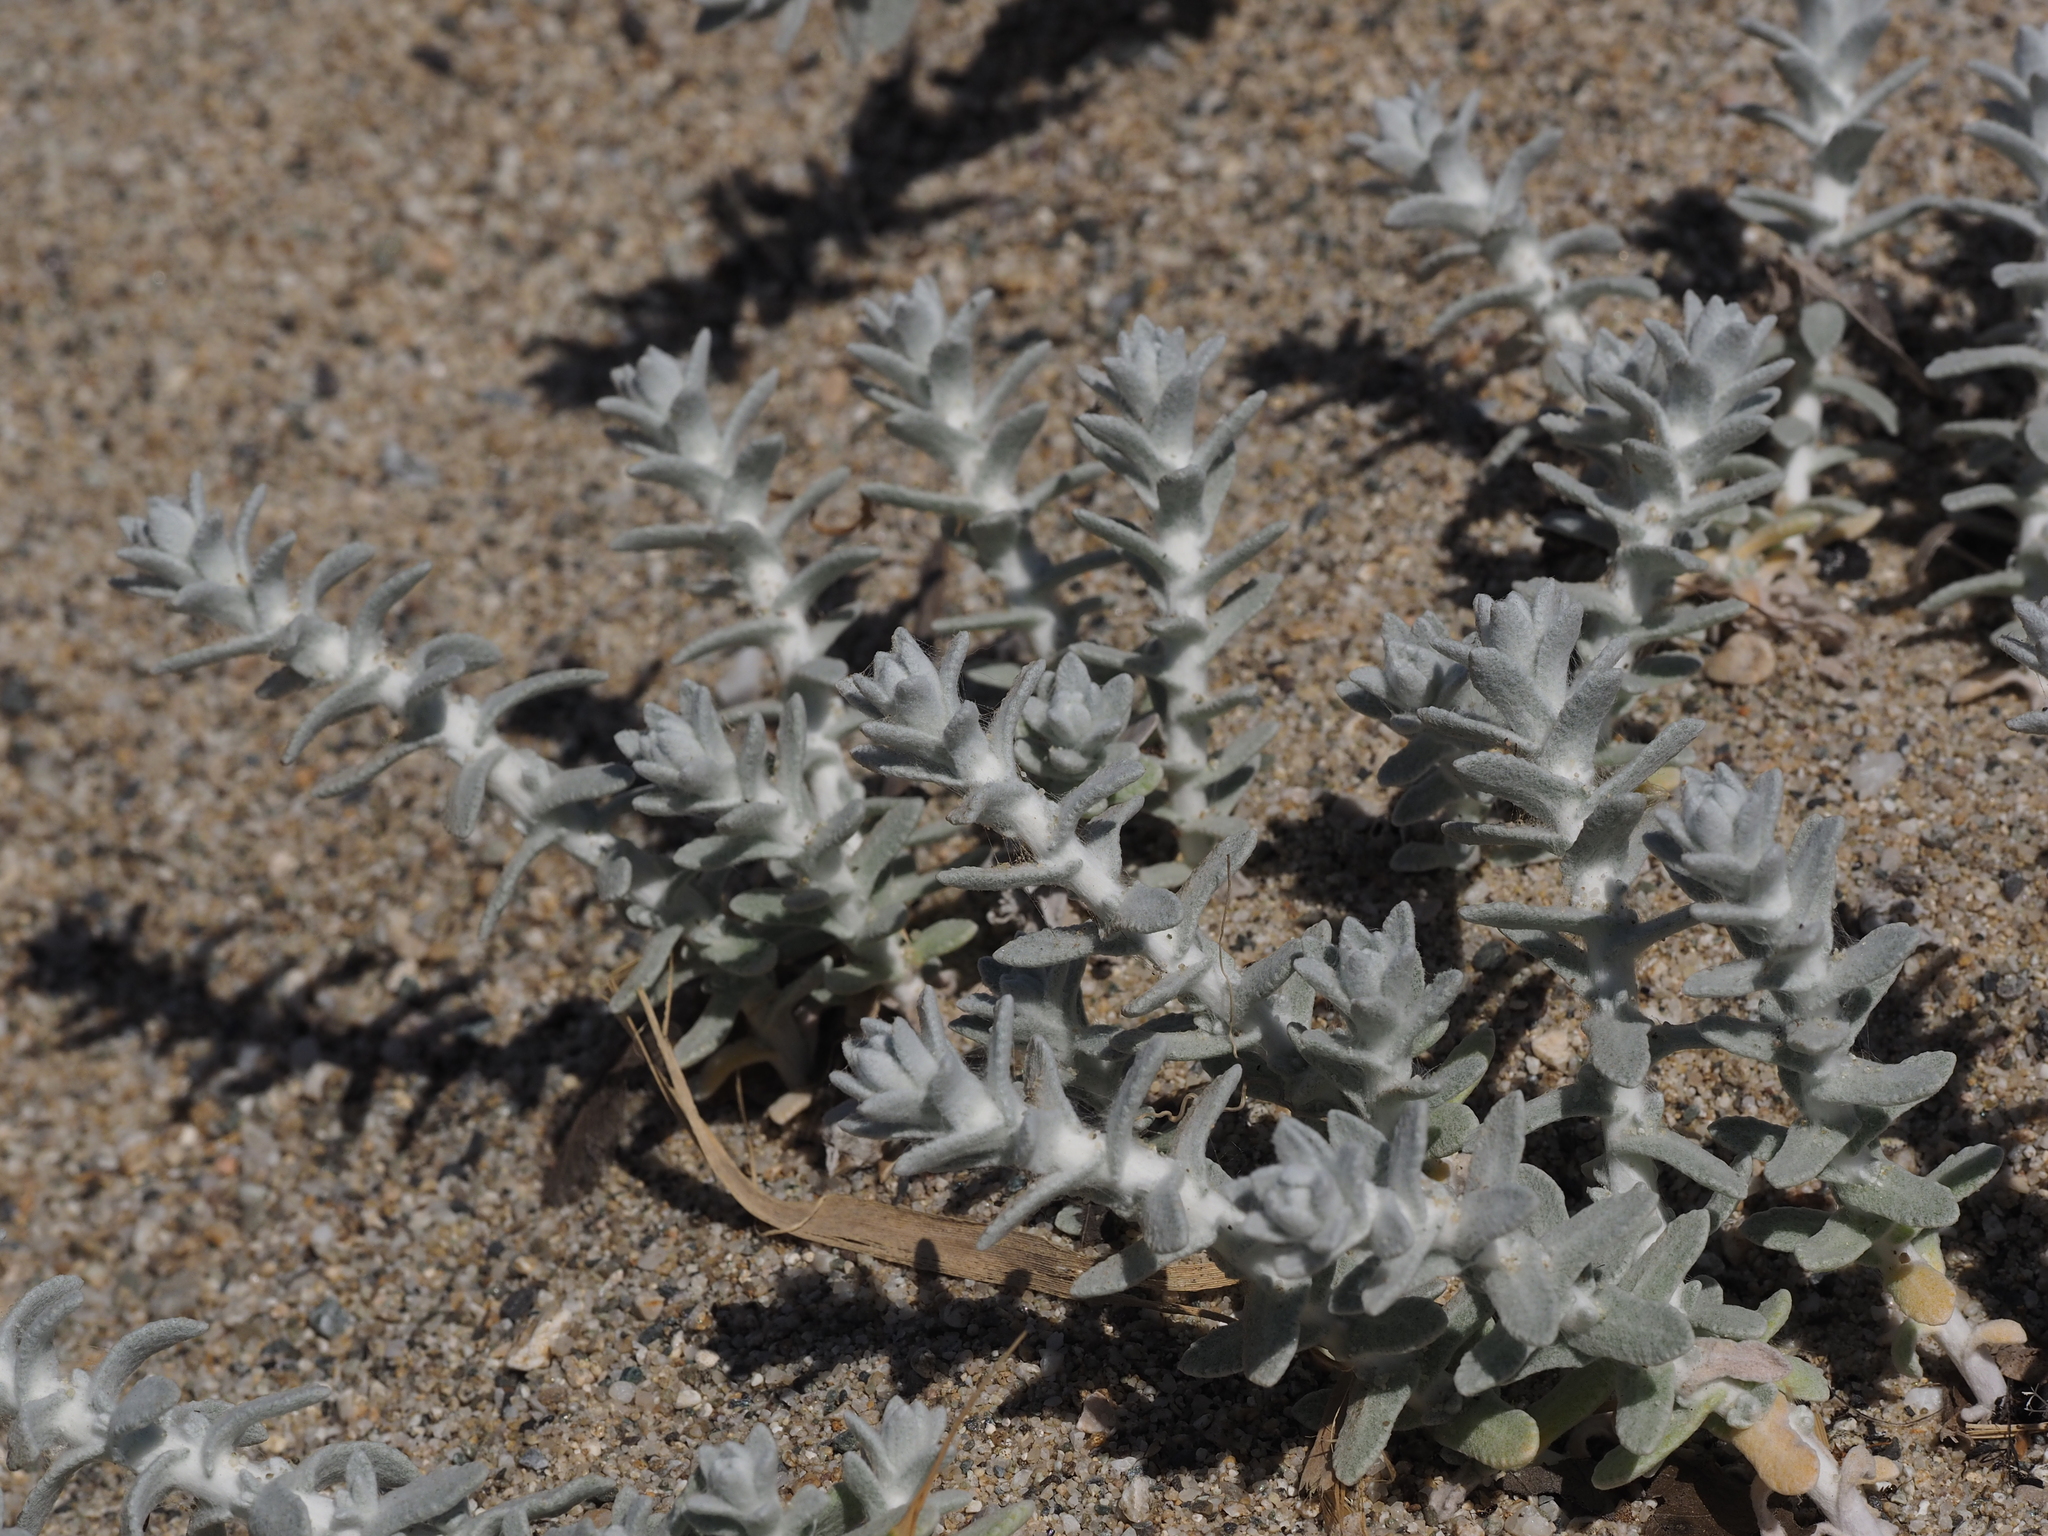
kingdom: Plantae
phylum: Tracheophyta
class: Magnoliopsida
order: Asterales
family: Asteraceae
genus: Achillea
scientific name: Achillea maritima
